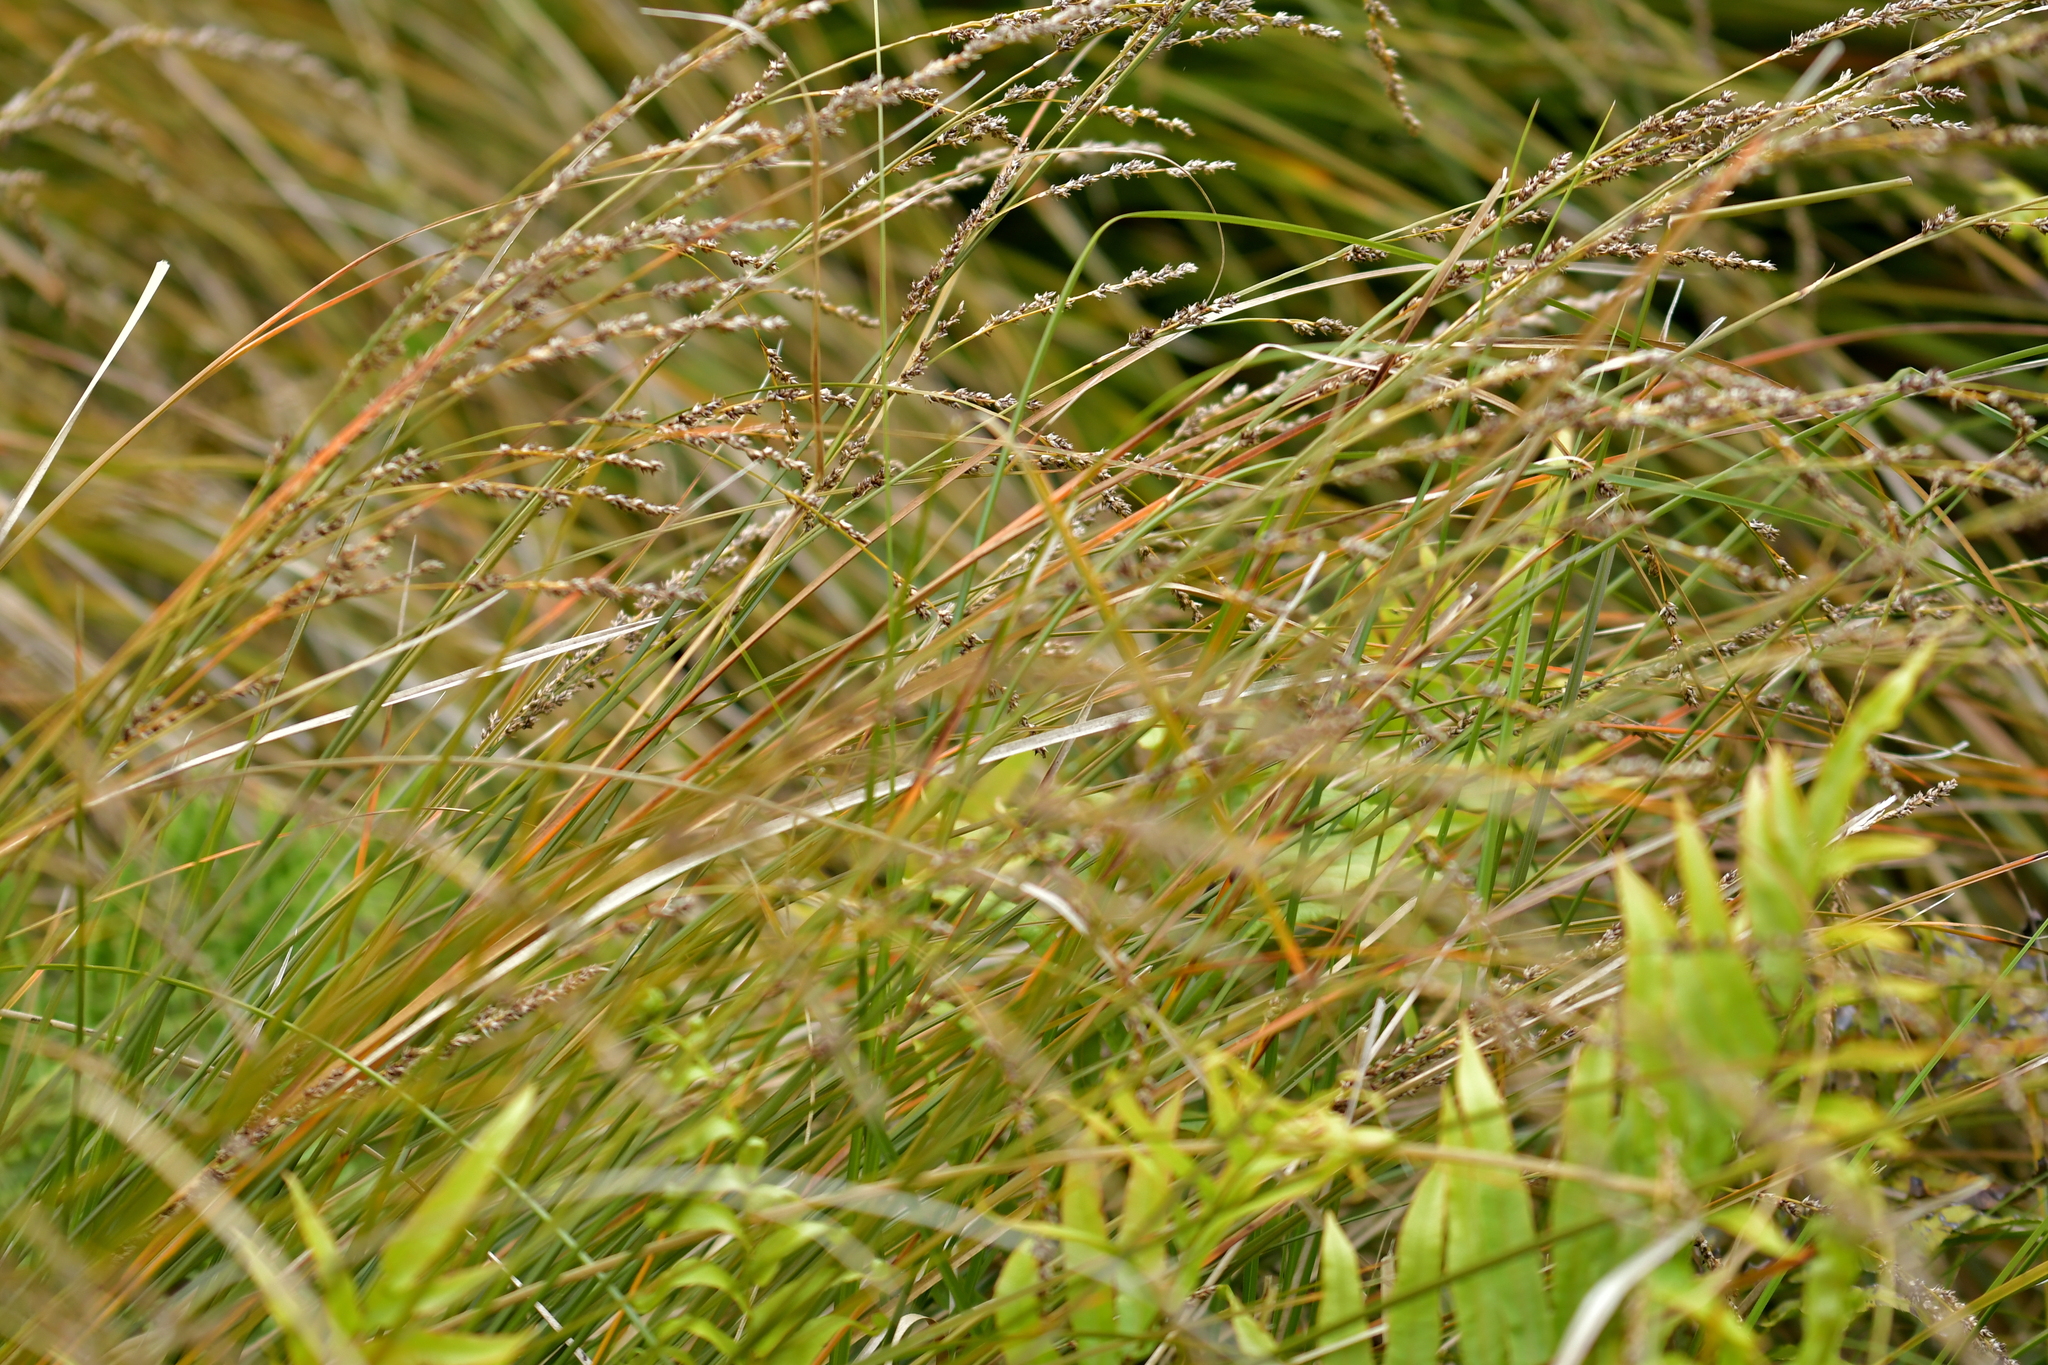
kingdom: Plantae
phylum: Tracheophyta
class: Liliopsida
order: Poales
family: Cyperaceae
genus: Carex
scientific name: Carex virgata
